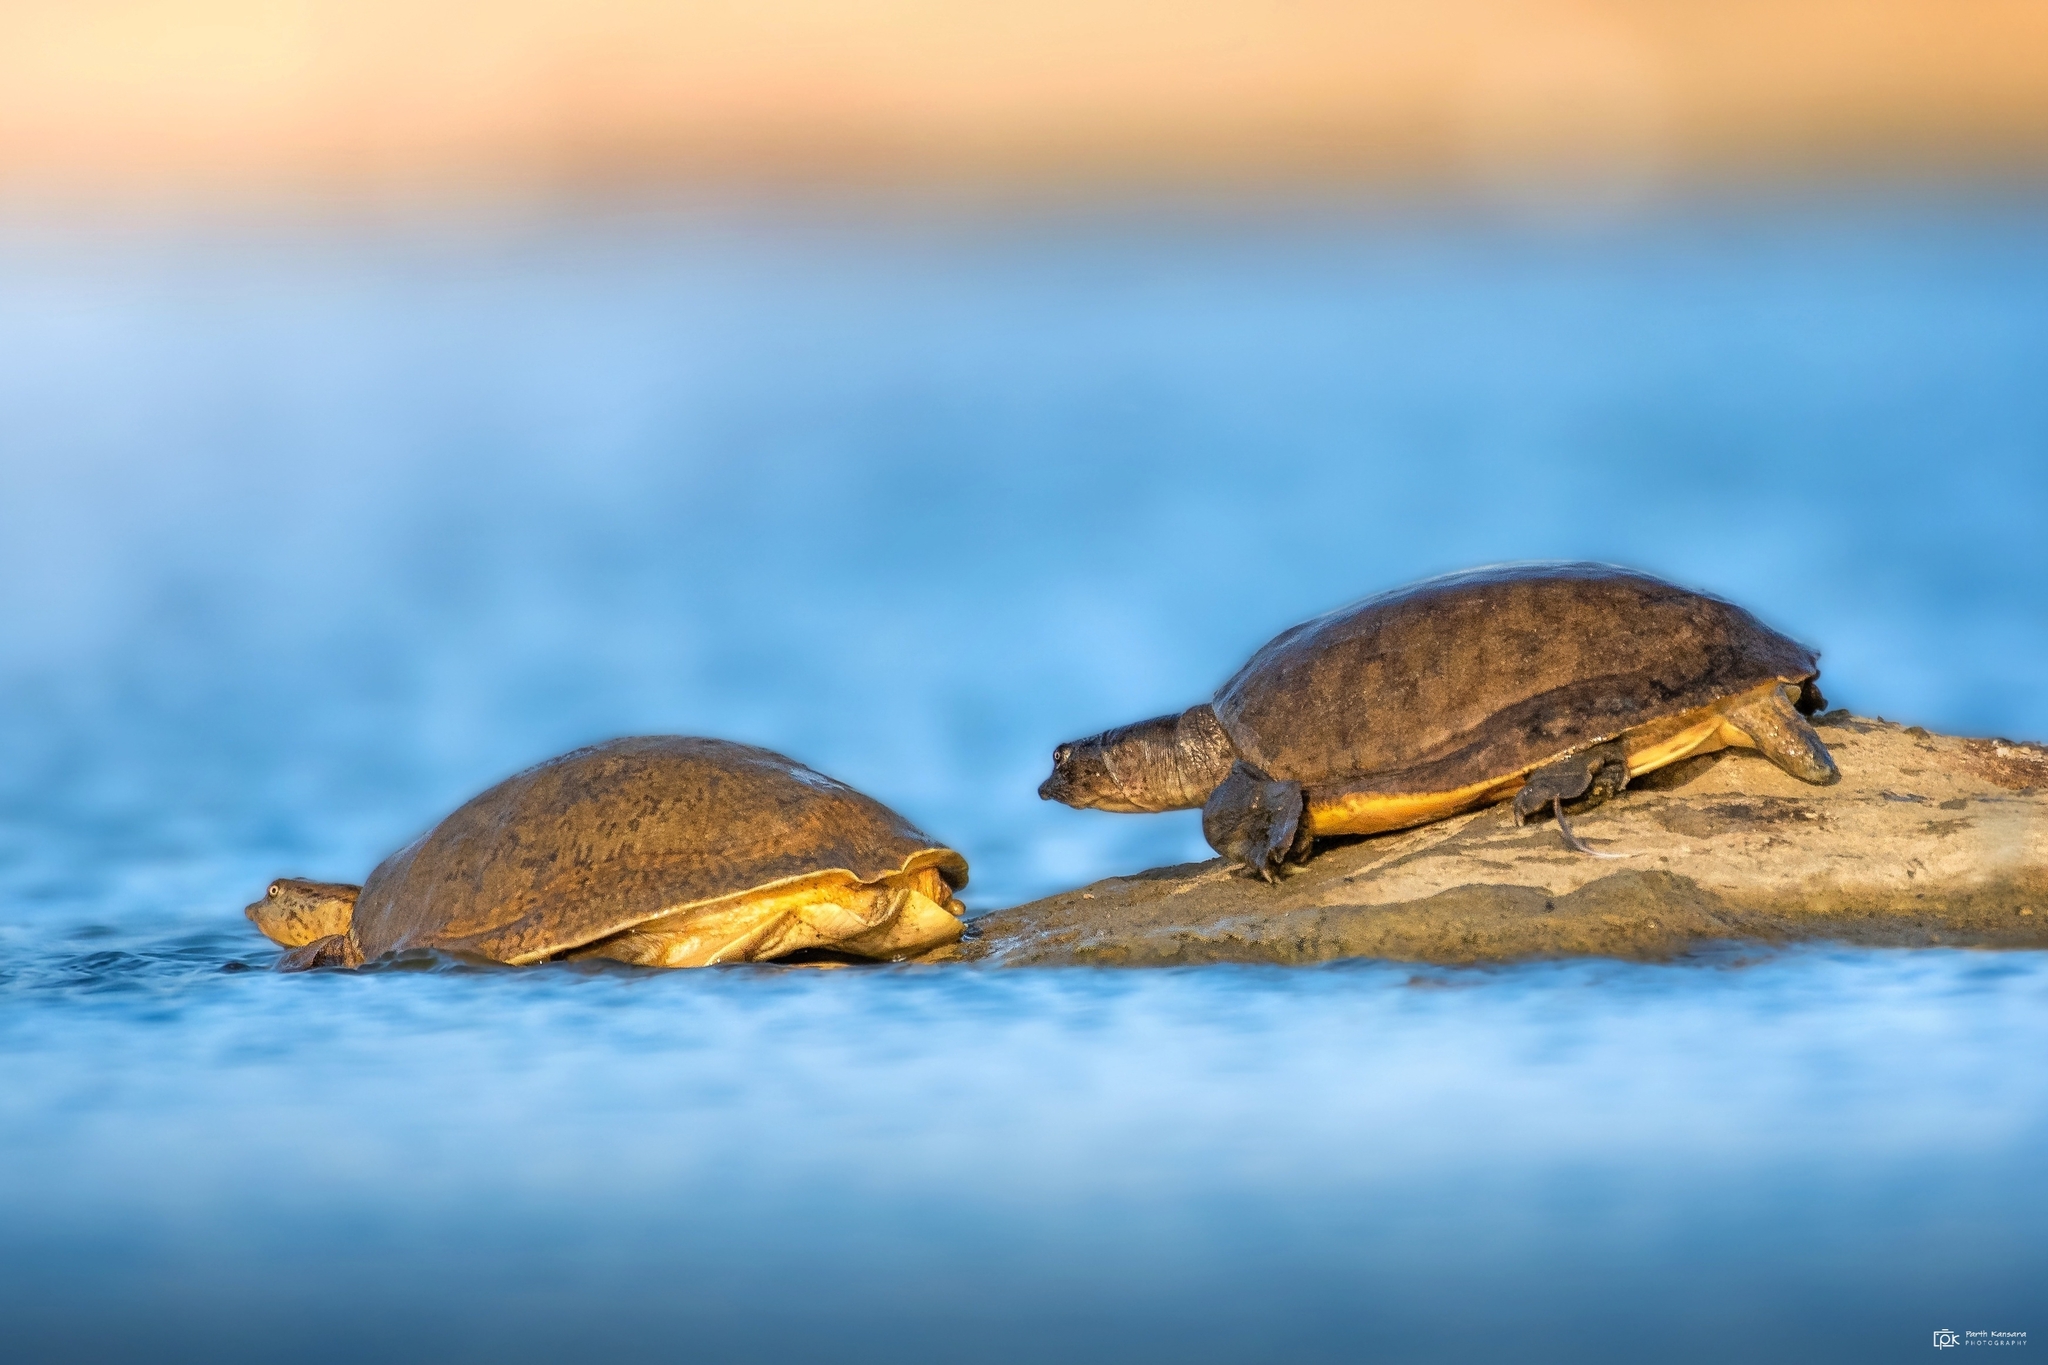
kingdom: Animalia
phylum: Chordata
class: Testudines
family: Trionychidae
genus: Lissemys
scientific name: Lissemys punctata
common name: Indian flap-shelled turtle
